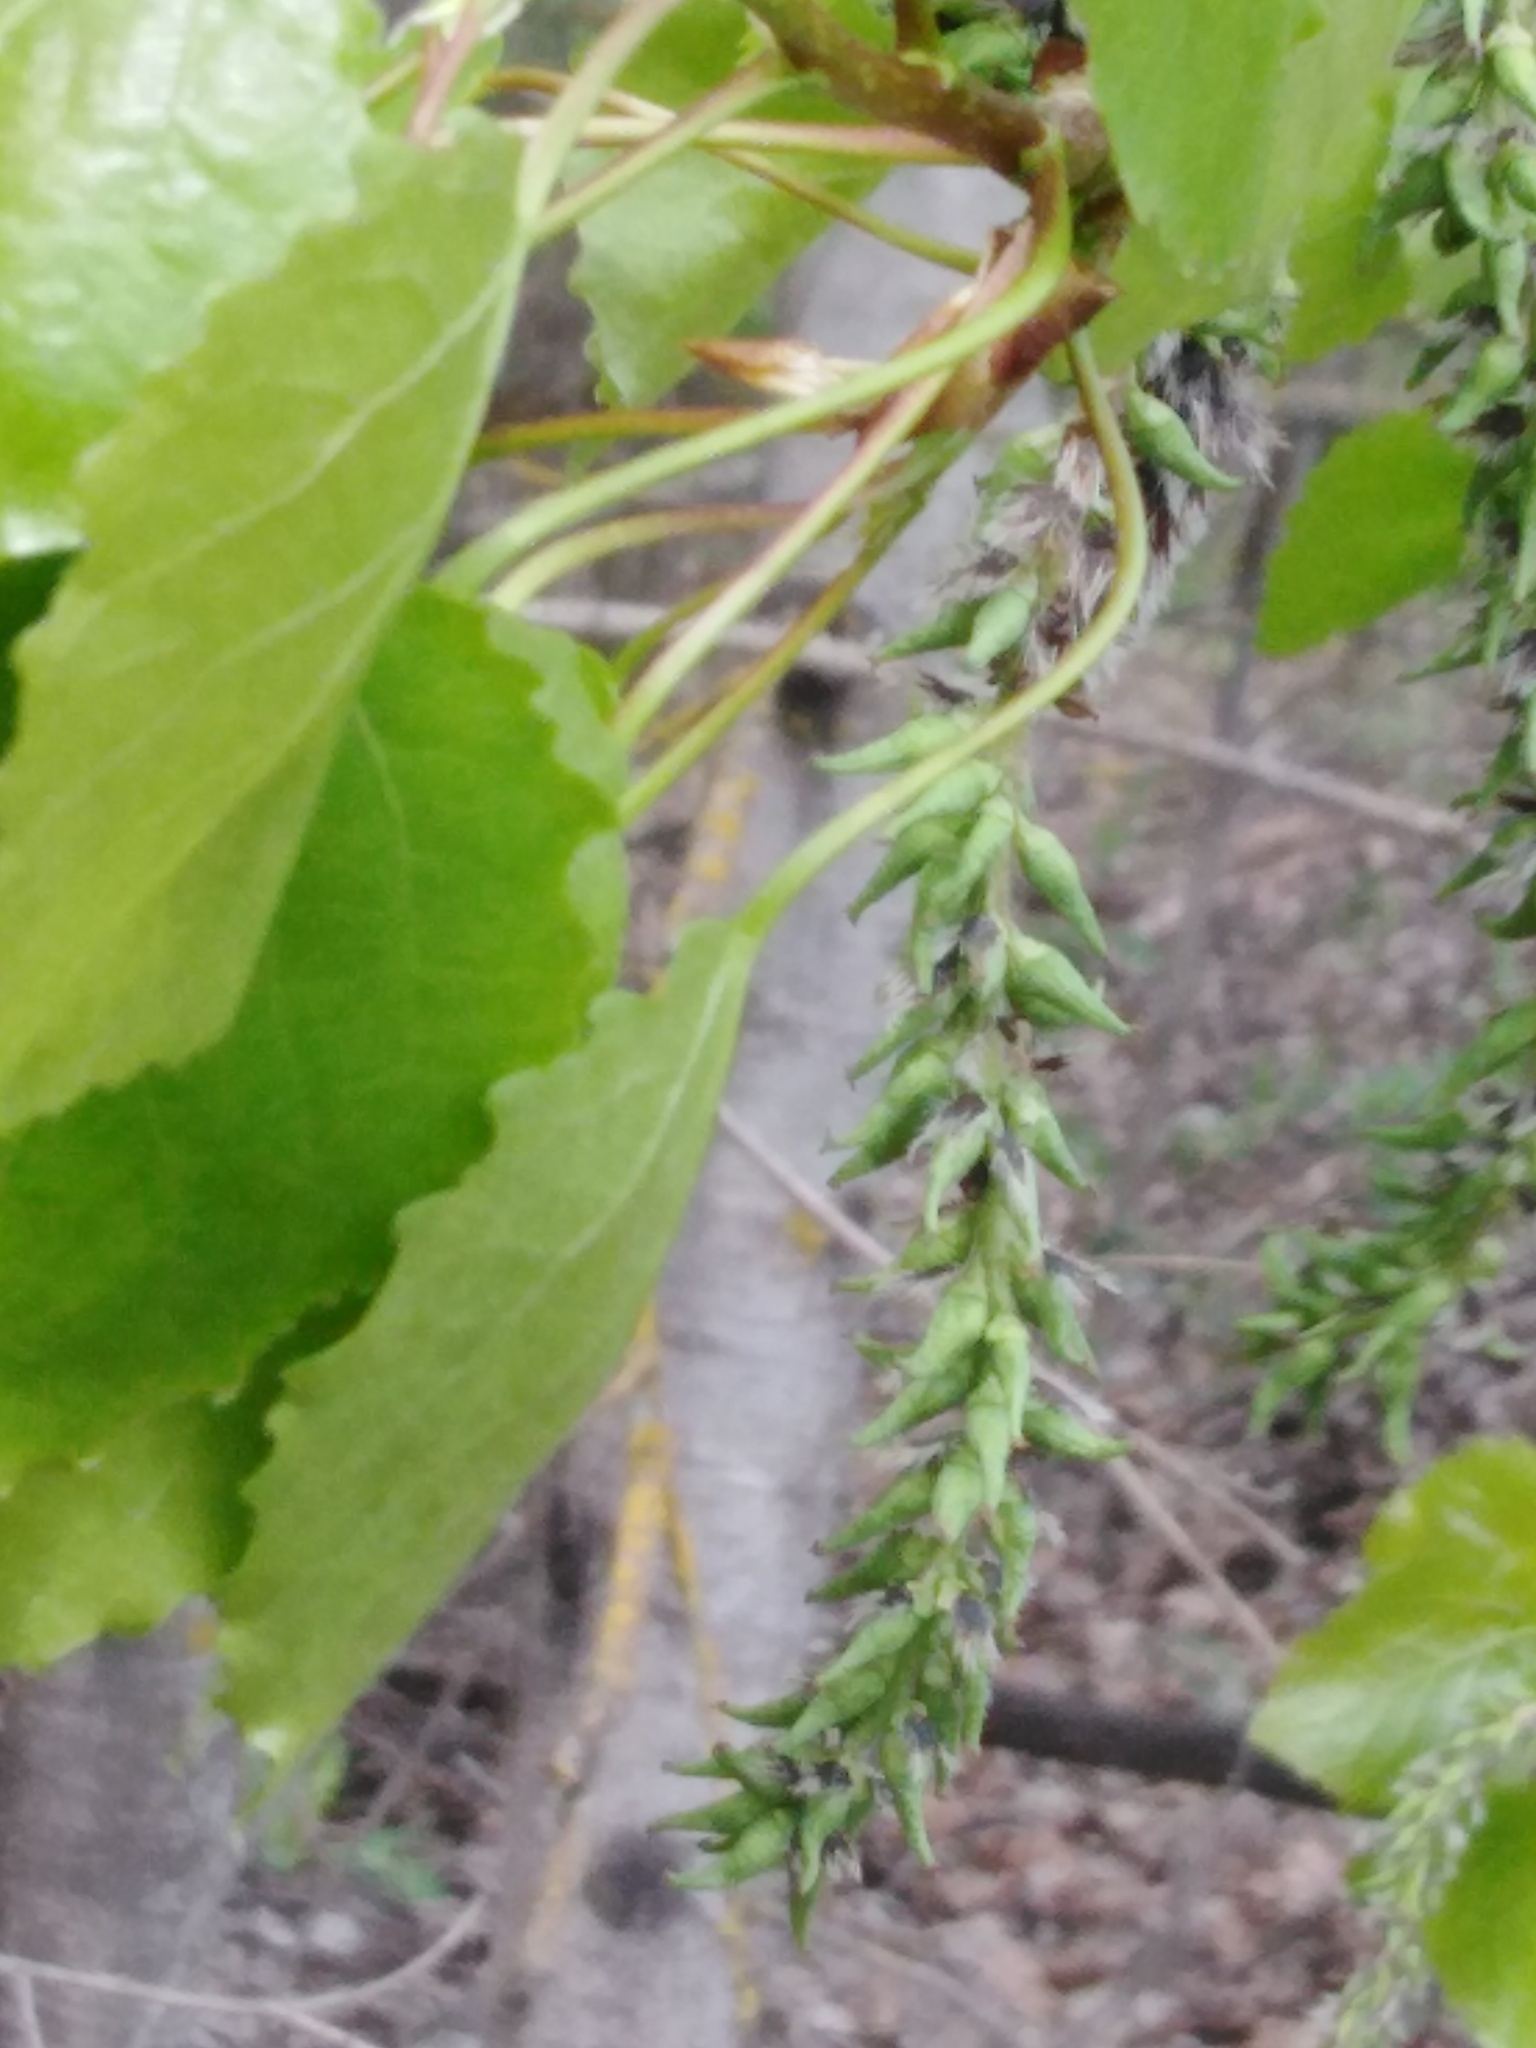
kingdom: Plantae
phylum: Tracheophyta
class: Magnoliopsida
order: Malpighiales
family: Salicaceae
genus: Populus
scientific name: Populus tremula
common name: European aspen
